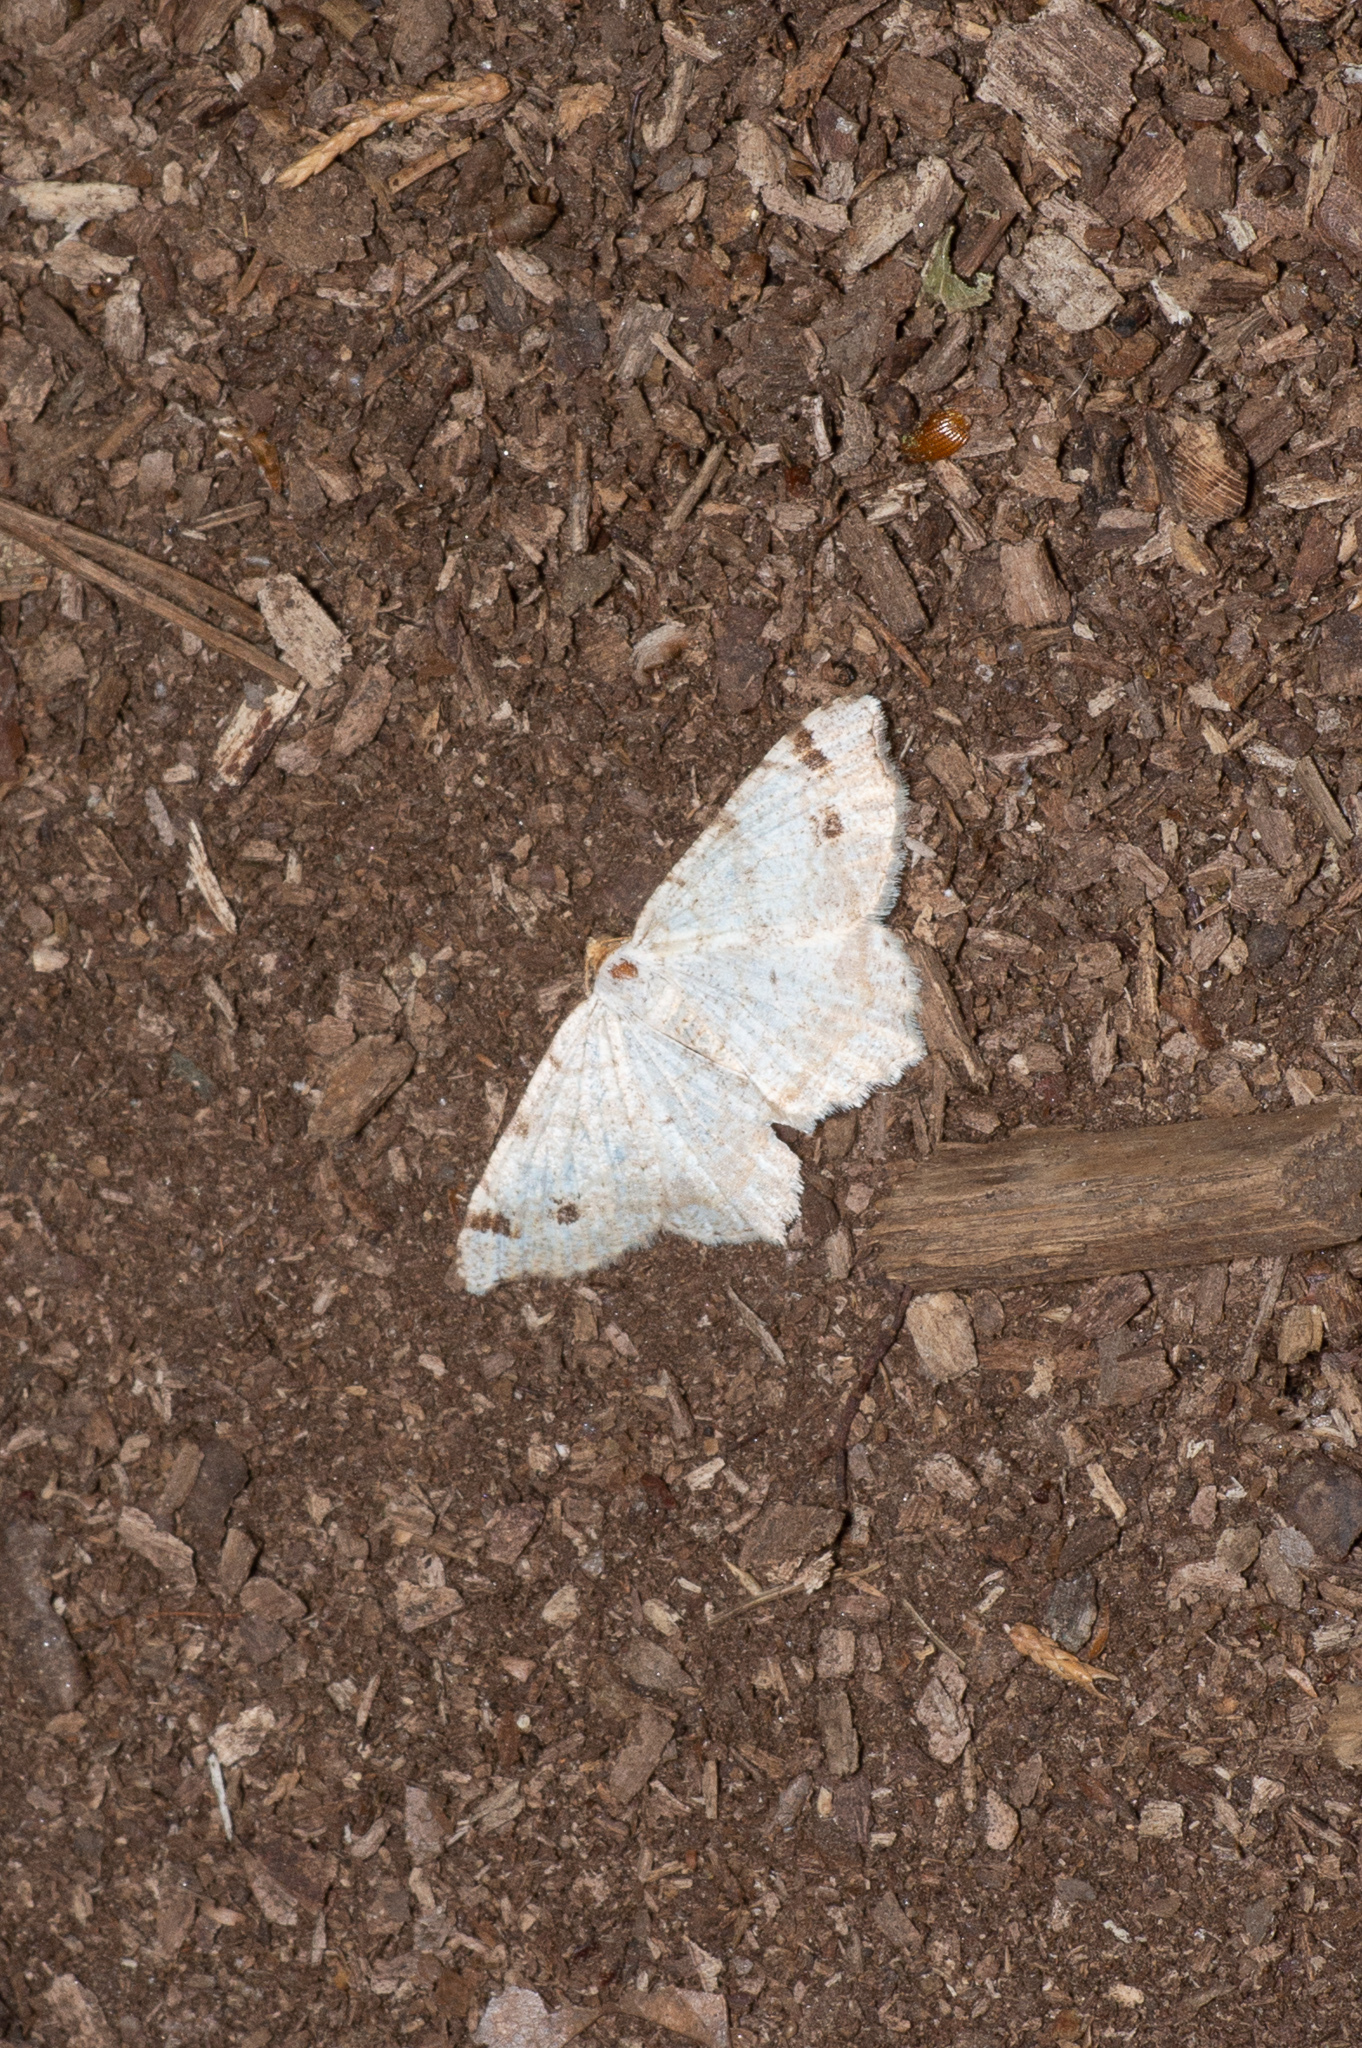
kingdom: Animalia
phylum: Arthropoda
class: Insecta
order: Lepidoptera
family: Geometridae
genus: Macaria
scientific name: Macaria bisignata
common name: Red-headed inchworm
